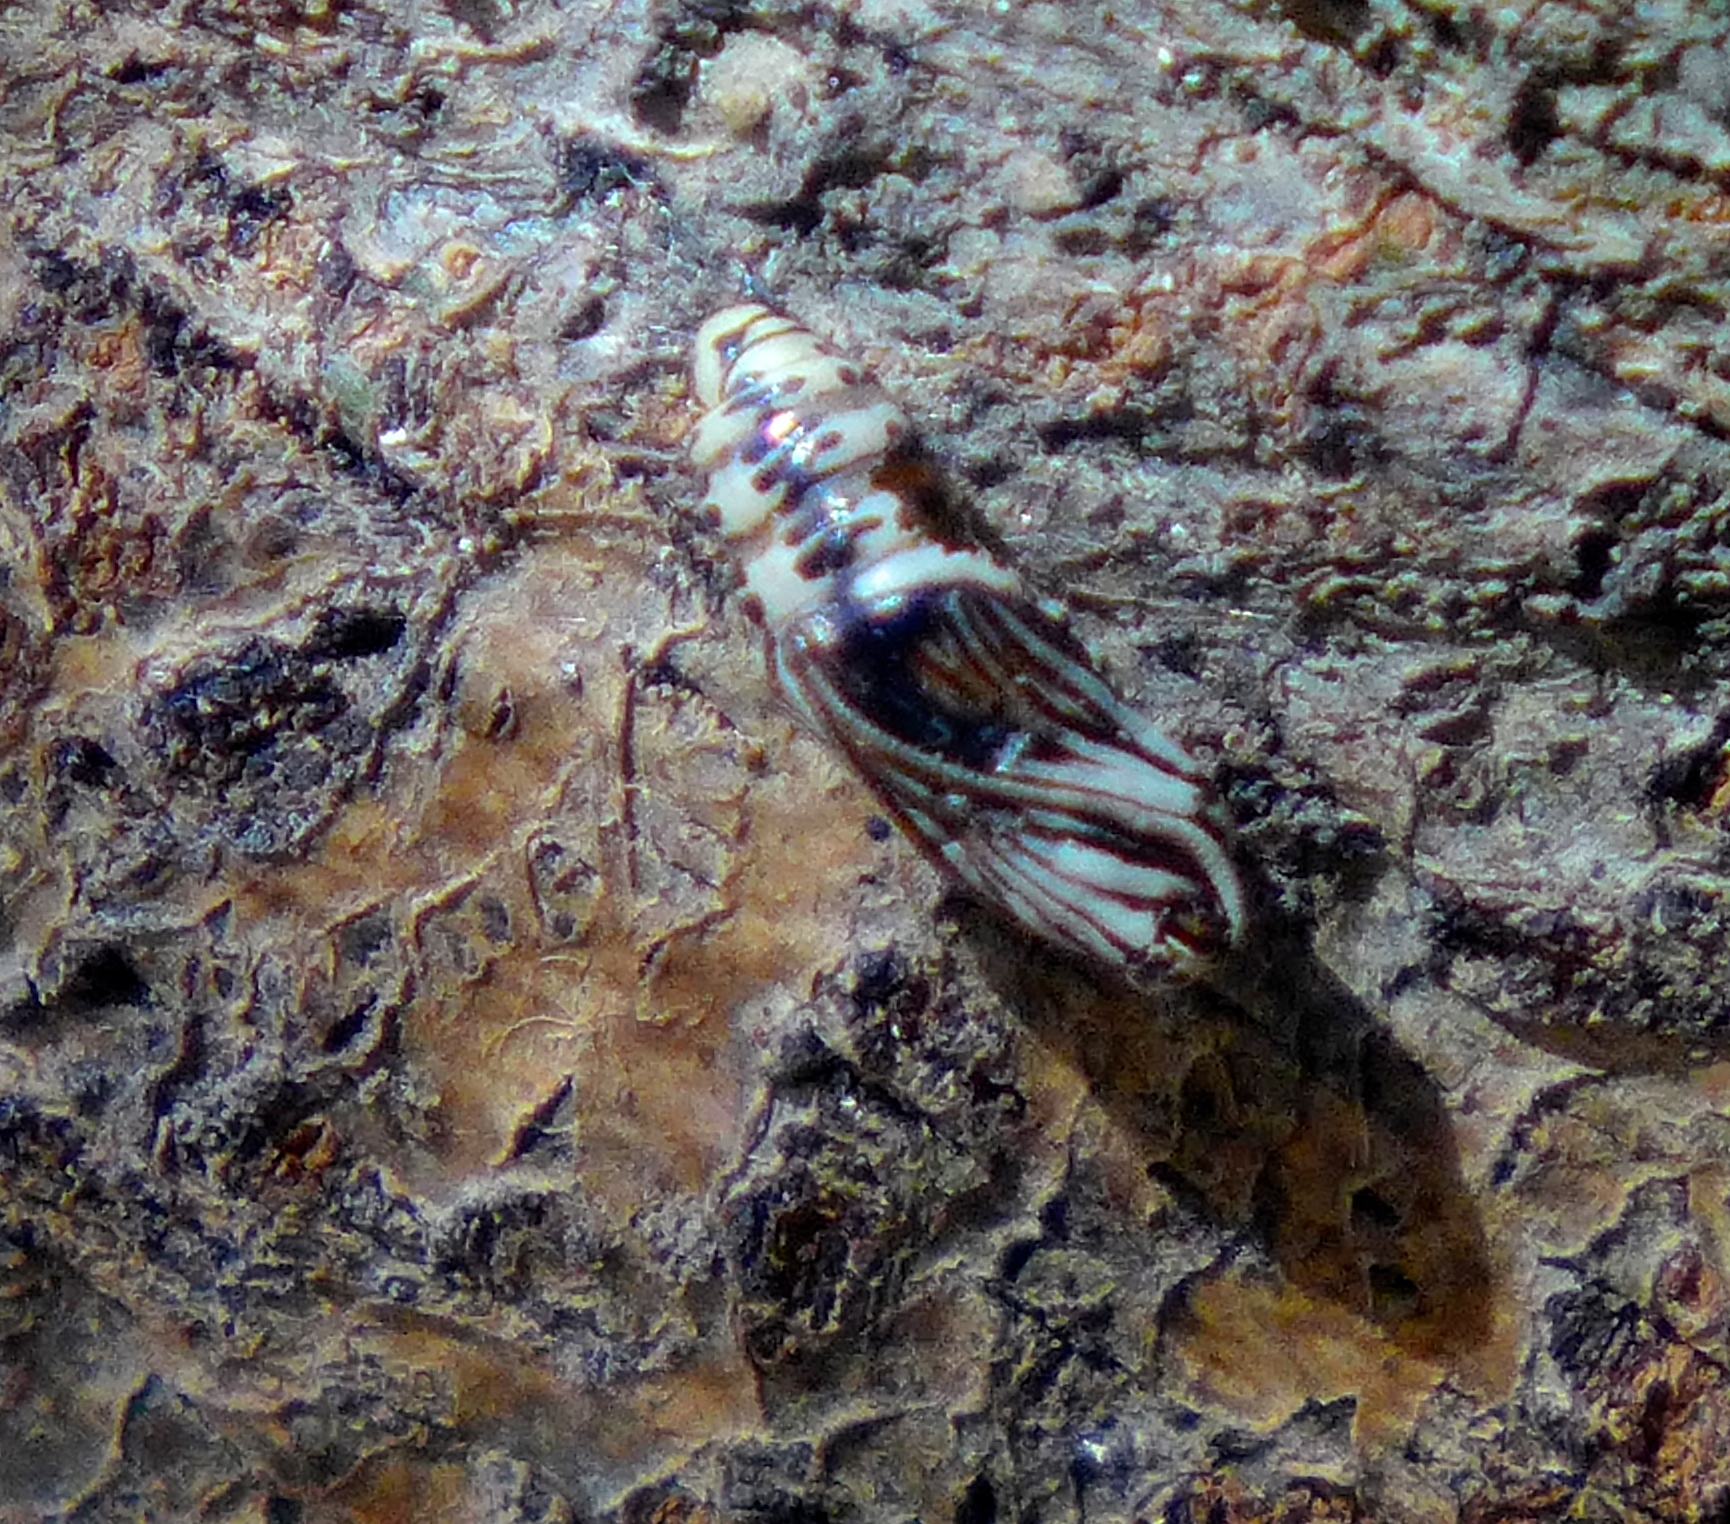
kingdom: Animalia
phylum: Arthropoda
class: Insecta
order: Lepidoptera
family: Notodontidae
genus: Phryganidia
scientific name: Phryganidia californica
